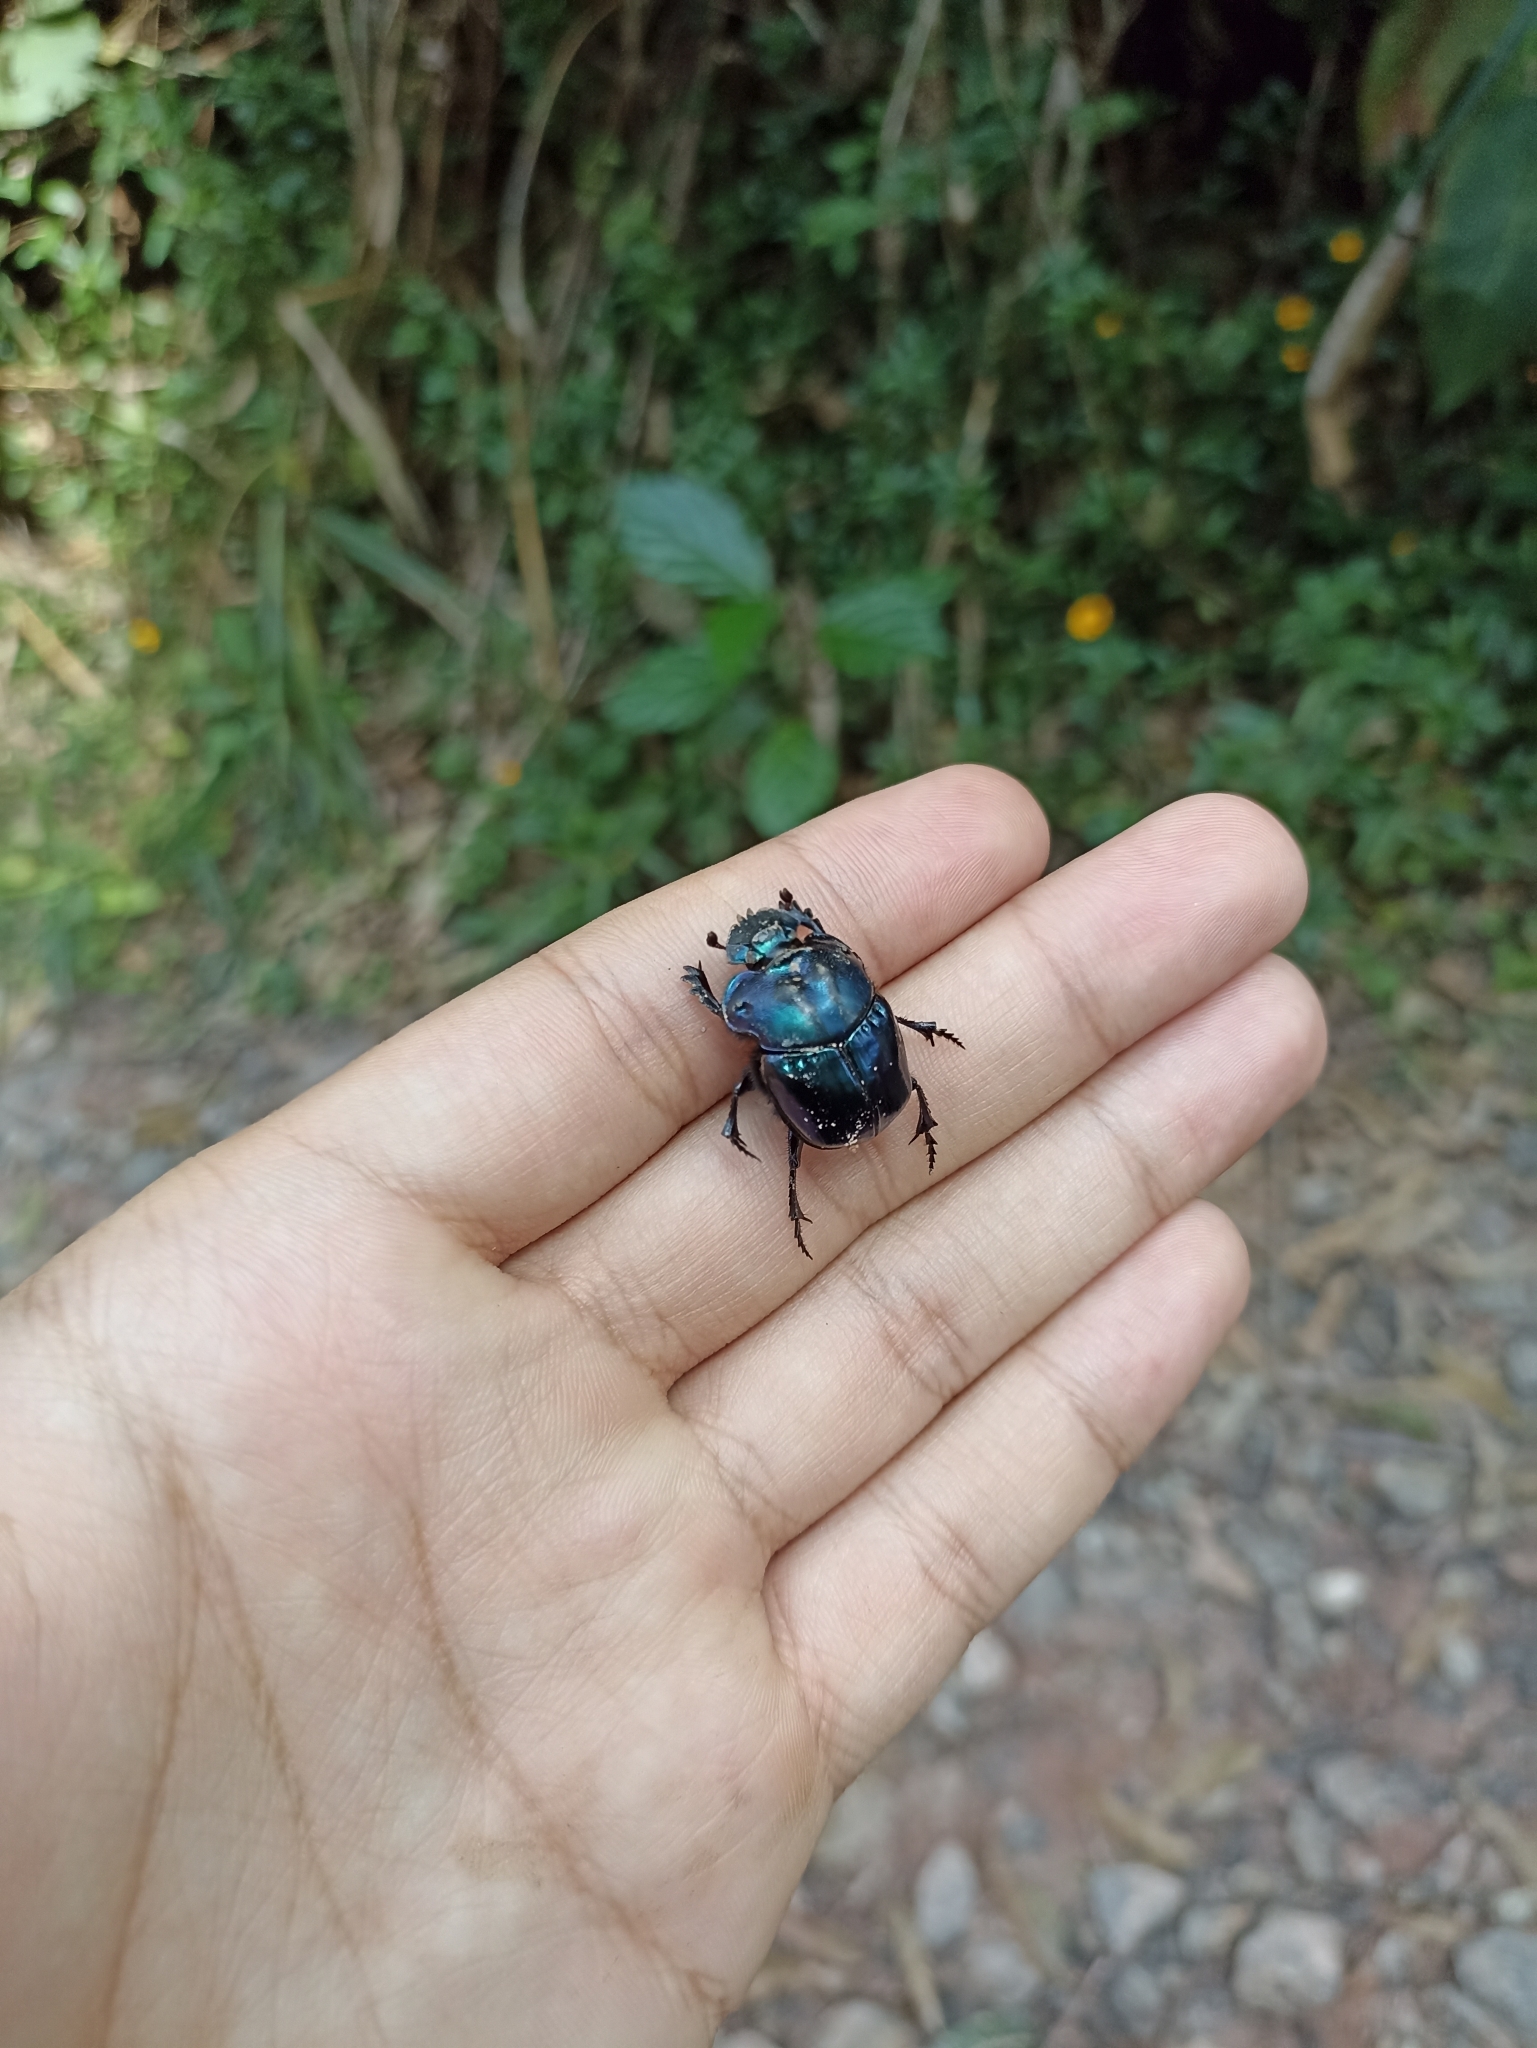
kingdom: Animalia
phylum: Arthropoda
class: Insecta
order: Coleoptera
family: Scarabaeidae
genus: Coprophanaeus
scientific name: Coprophanaeus saphirinus
